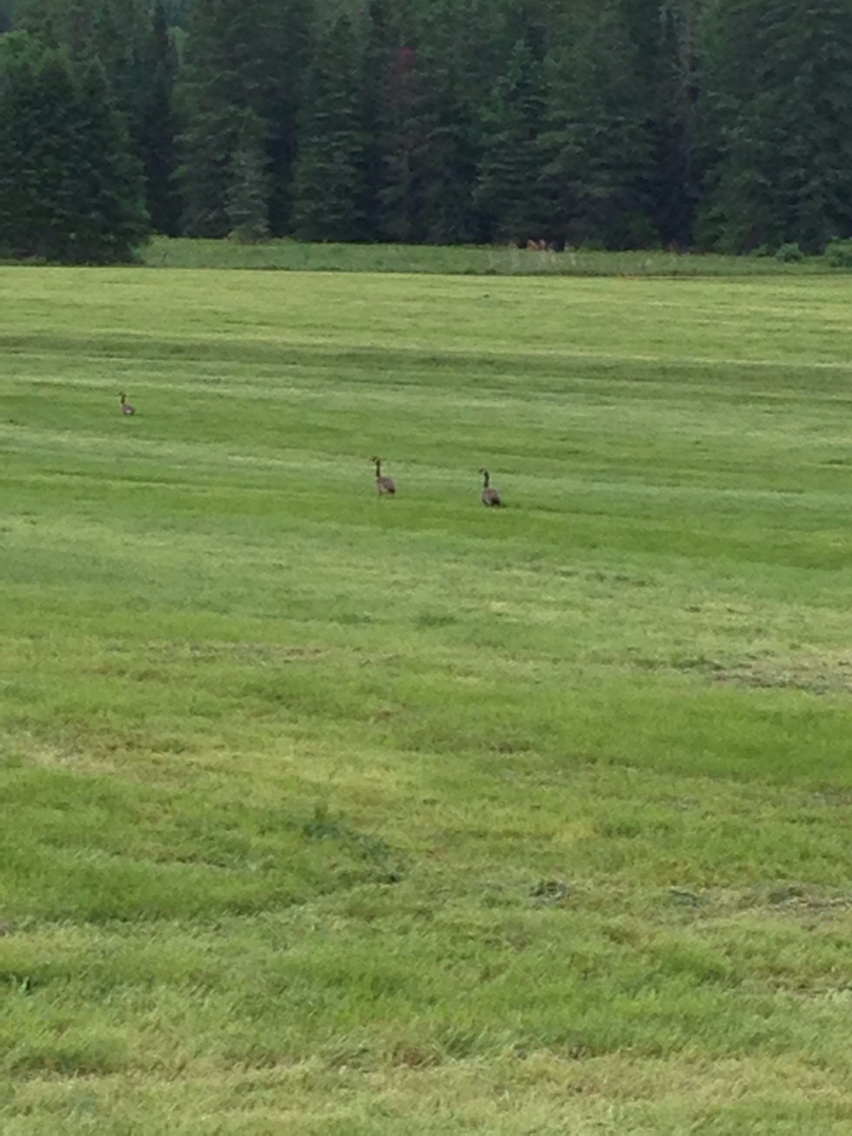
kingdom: Animalia
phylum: Chordata
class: Aves
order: Anseriformes
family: Anatidae
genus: Branta
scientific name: Branta canadensis
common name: Canada goose
